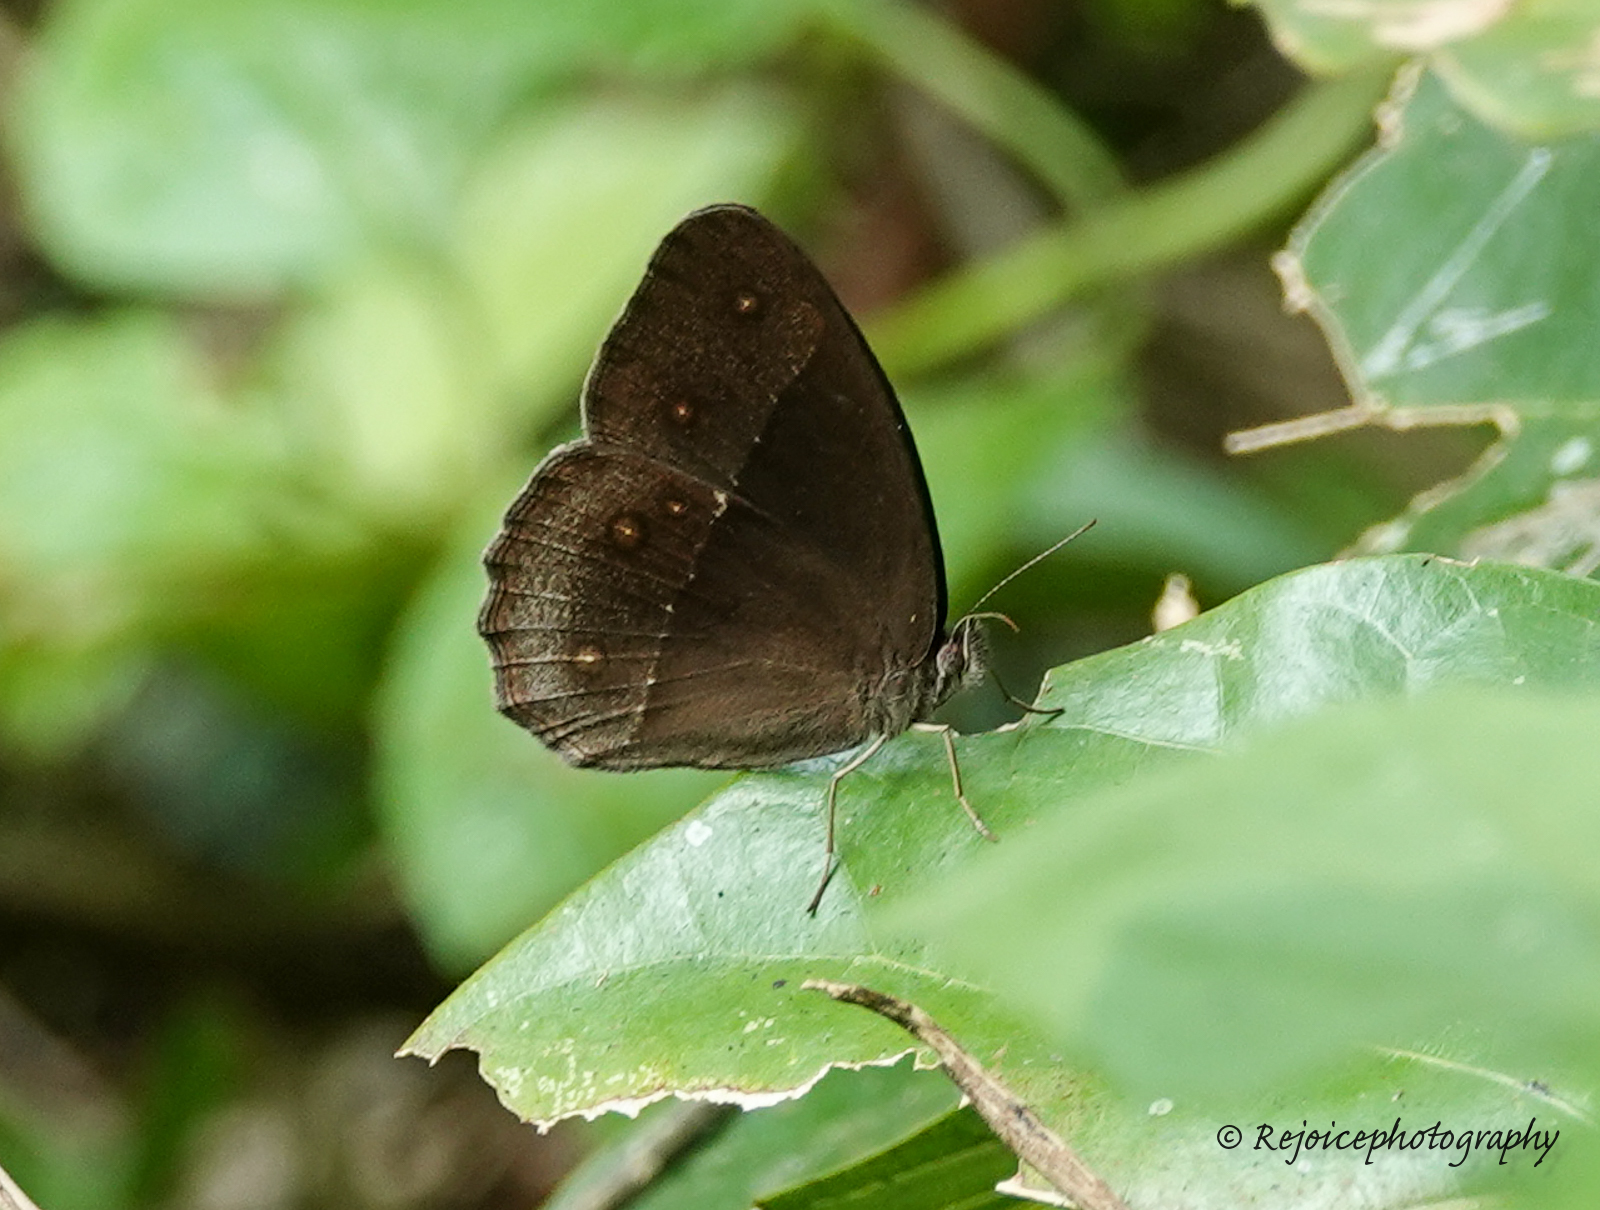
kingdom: Animalia
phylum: Arthropoda
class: Insecta
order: Lepidoptera
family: Nymphalidae
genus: Orsotriaena
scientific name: Orsotriaena medus
